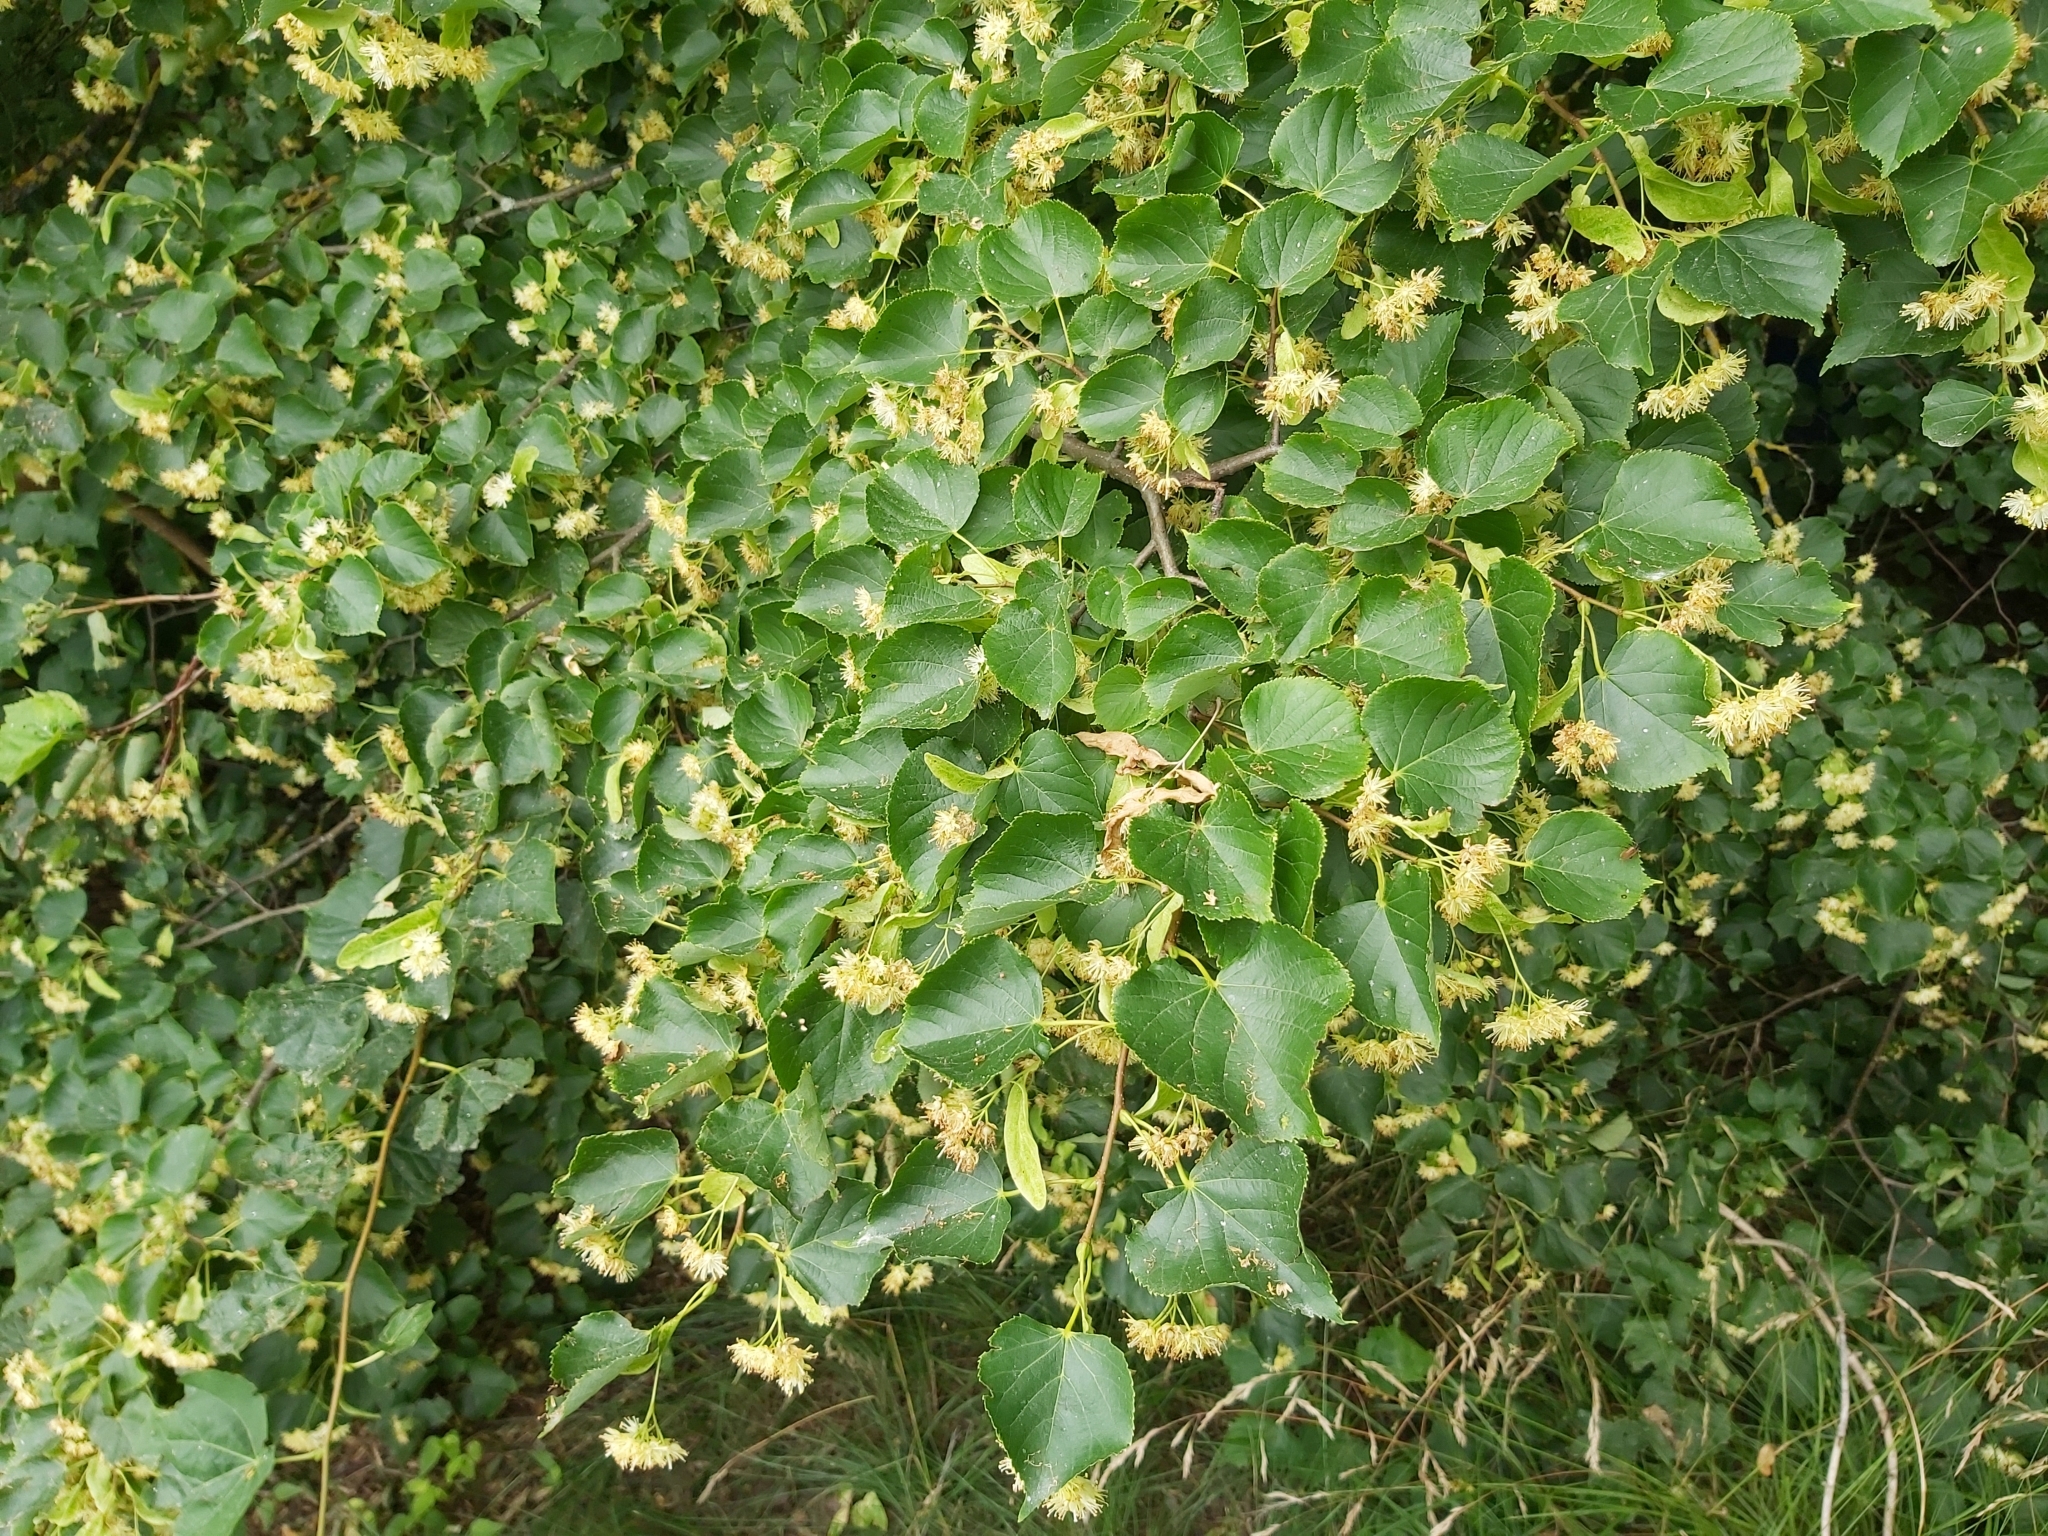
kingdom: Plantae
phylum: Tracheophyta
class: Magnoliopsida
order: Malvales
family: Malvaceae
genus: Tilia
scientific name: Tilia cordata
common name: Small-leaved lime
